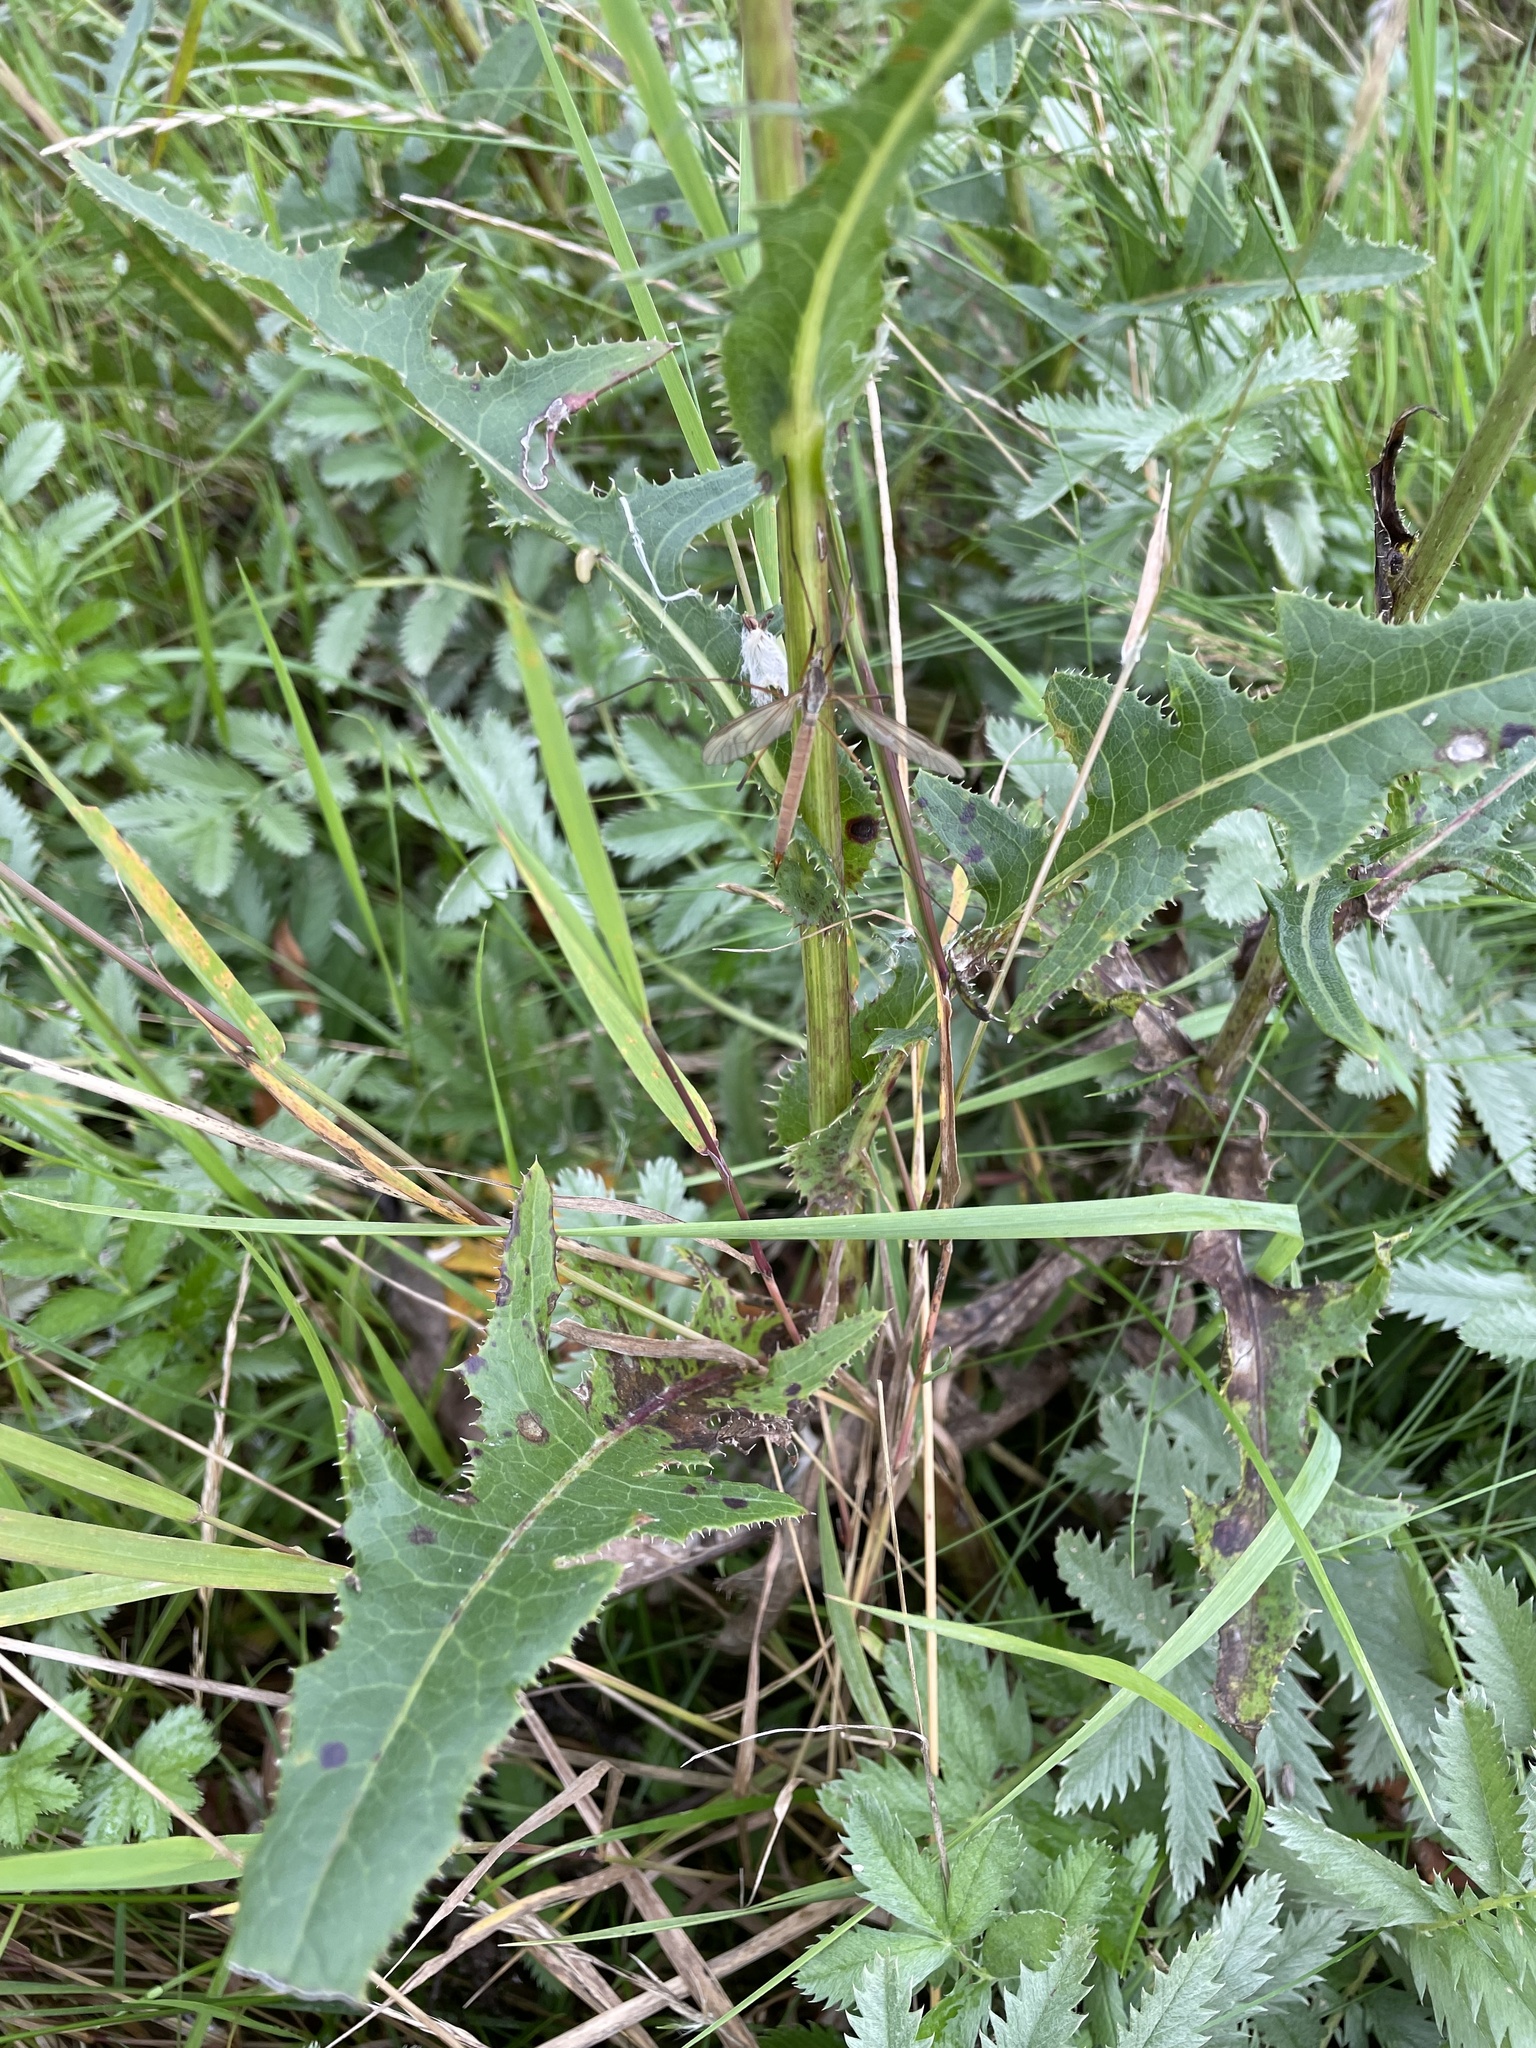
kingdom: Plantae
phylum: Tracheophyta
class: Magnoliopsida
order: Asterales
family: Asteraceae
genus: Sonchus
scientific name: Sonchus arvensis
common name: Perennial sow-thistle
